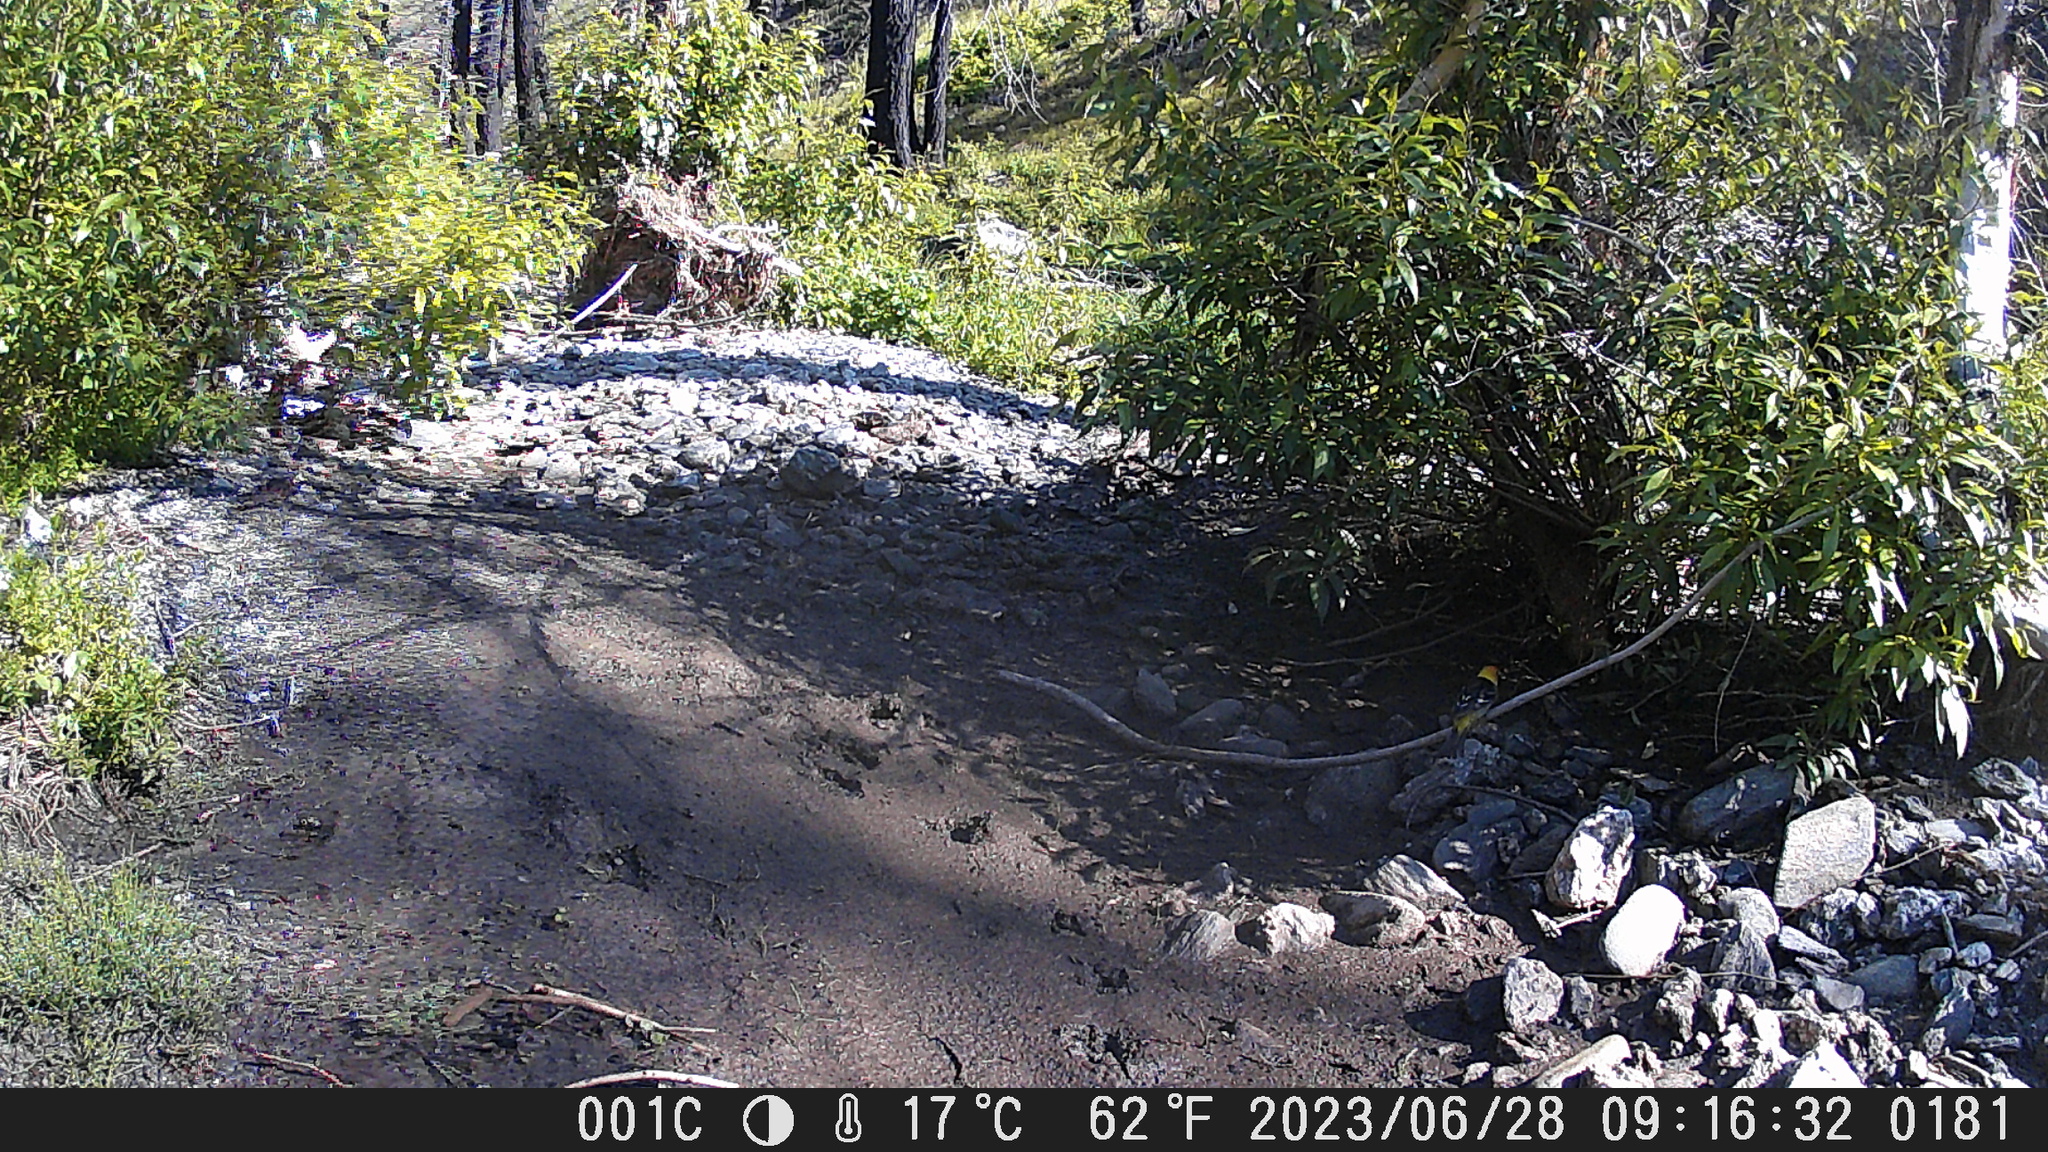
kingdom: Animalia
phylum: Chordata
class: Aves
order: Passeriformes
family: Icteridae
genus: Icterus
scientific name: Icterus cucullatus
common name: Hooded oriole
